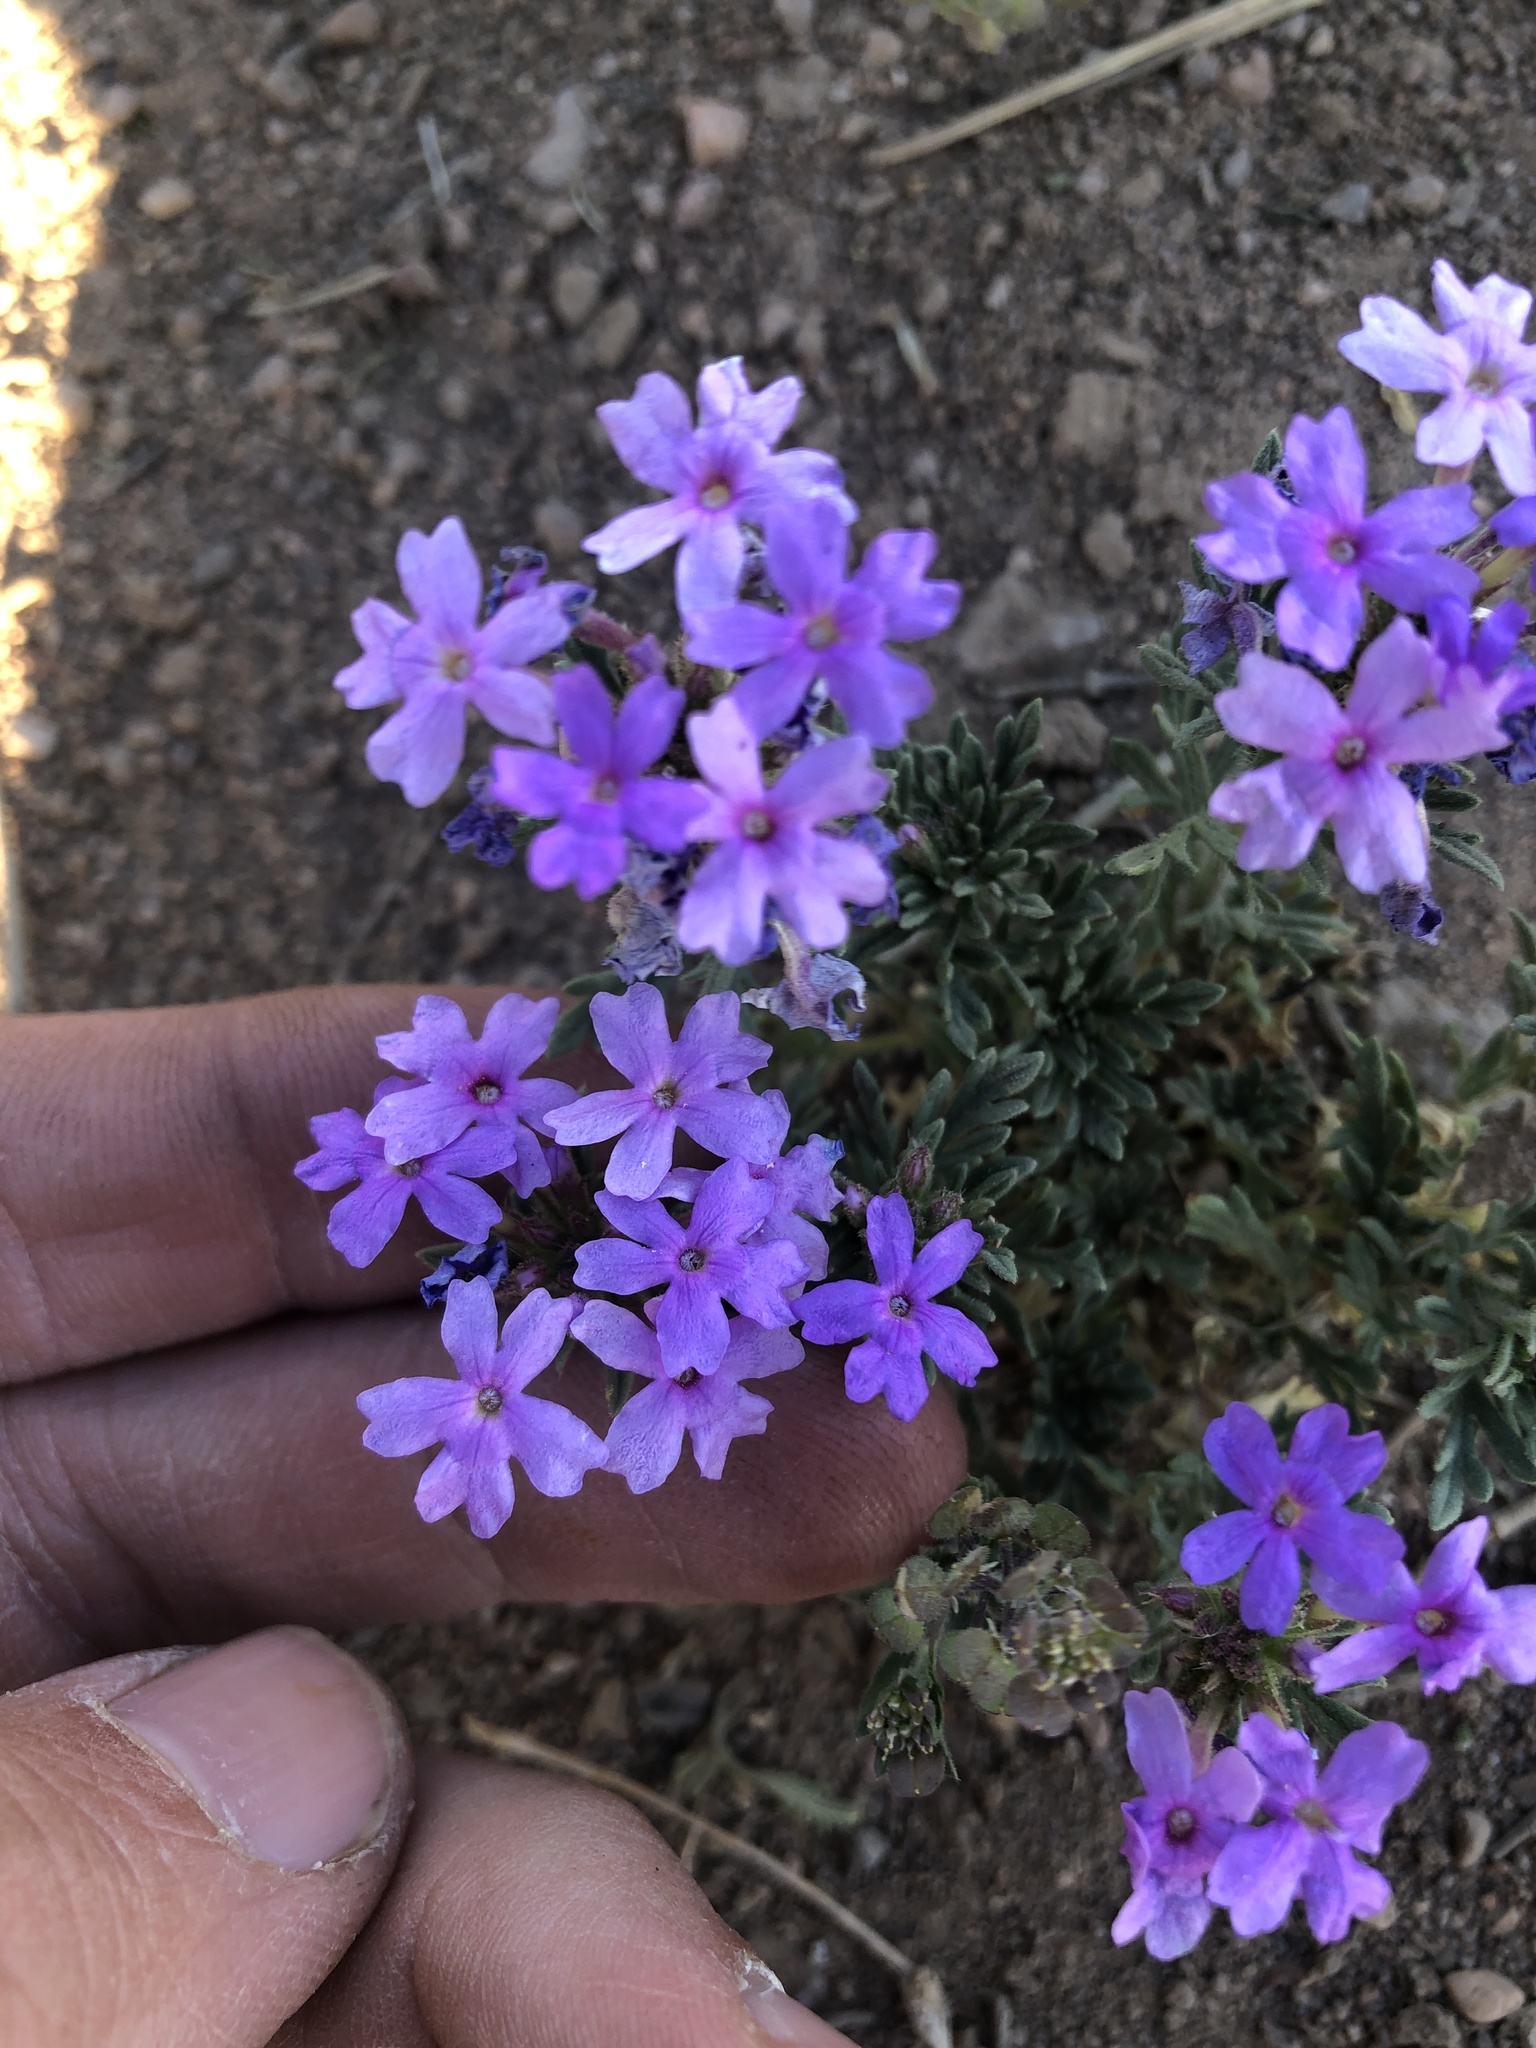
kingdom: Plantae
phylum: Tracheophyta
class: Magnoliopsida
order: Lamiales
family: Verbenaceae
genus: Verbena
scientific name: Verbena bipinnatifida
